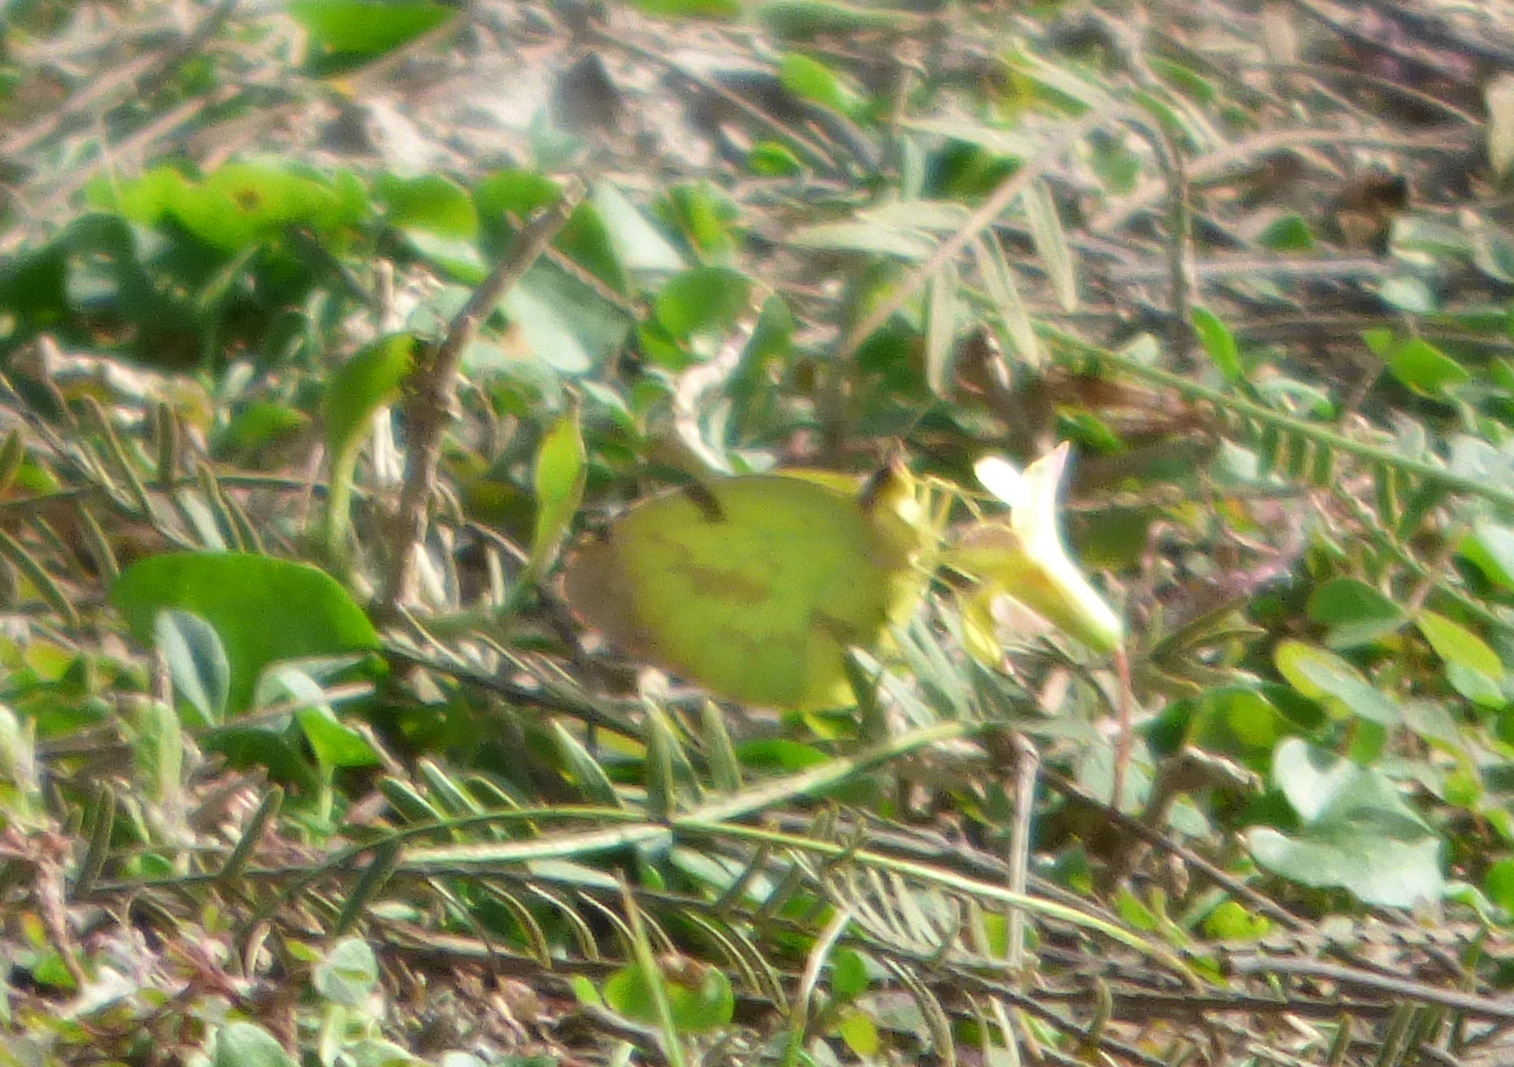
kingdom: Animalia
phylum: Arthropoda
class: Insecta
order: Lepidoptera
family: Pieridae
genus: Teriocolias
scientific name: Teriocolias
